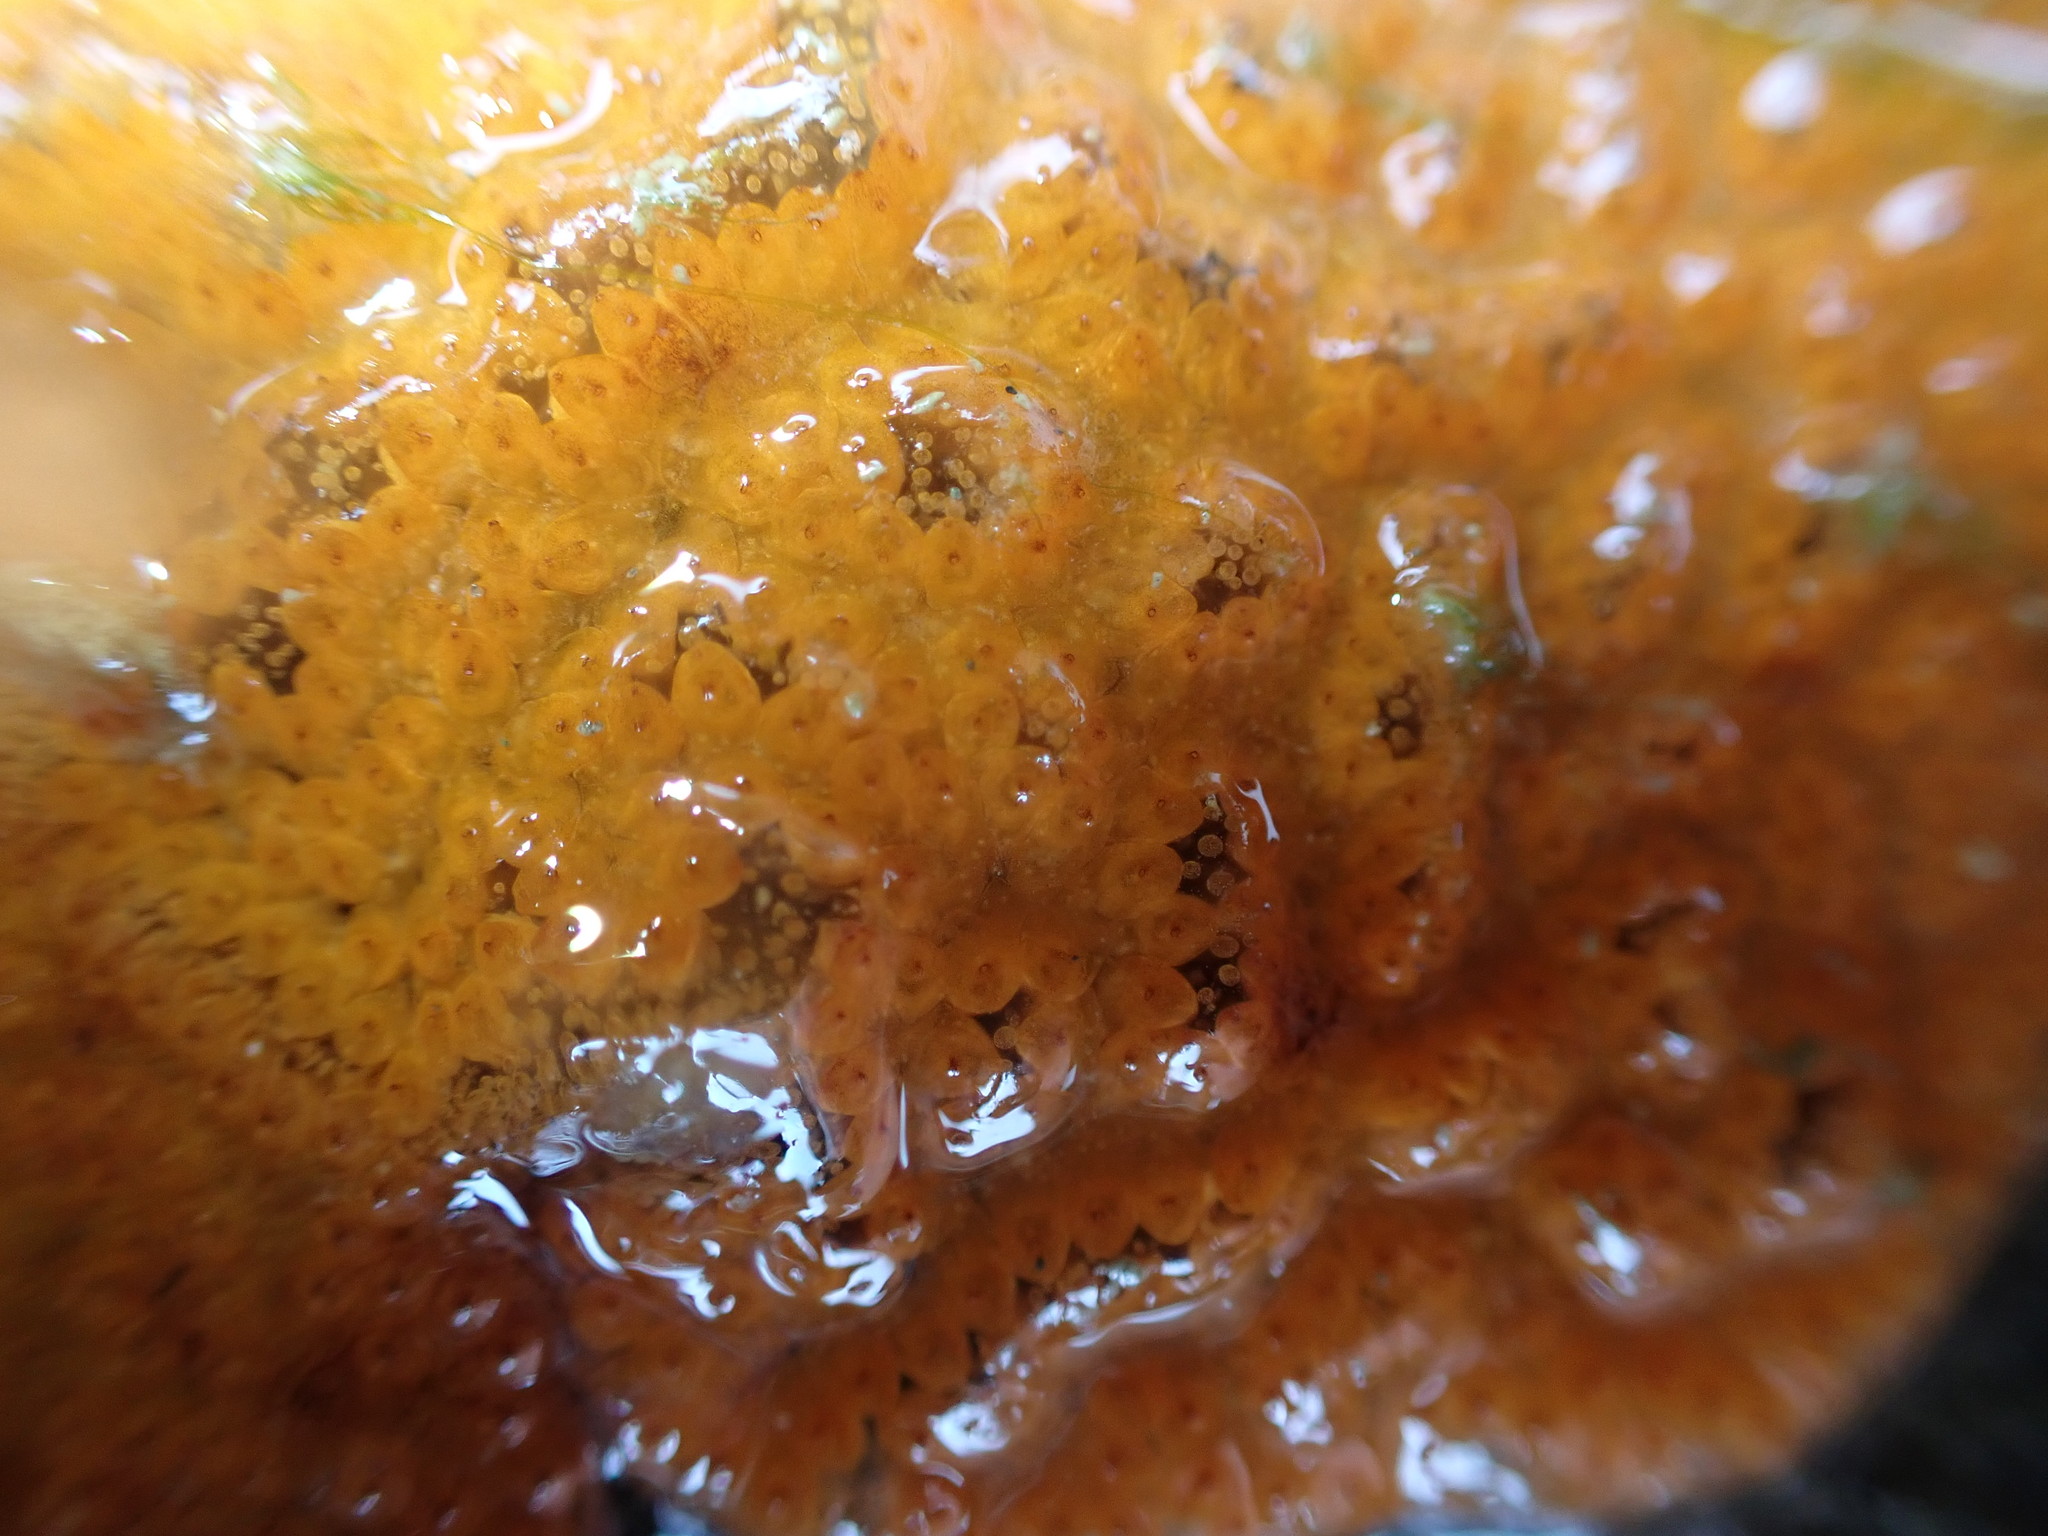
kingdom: Animalia
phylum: Chordata
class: Ascidiacea
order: Stolidobranchia
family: Styelidae
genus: Botrylloides
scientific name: Botrylloides violaceus
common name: Colonial sea squirt
